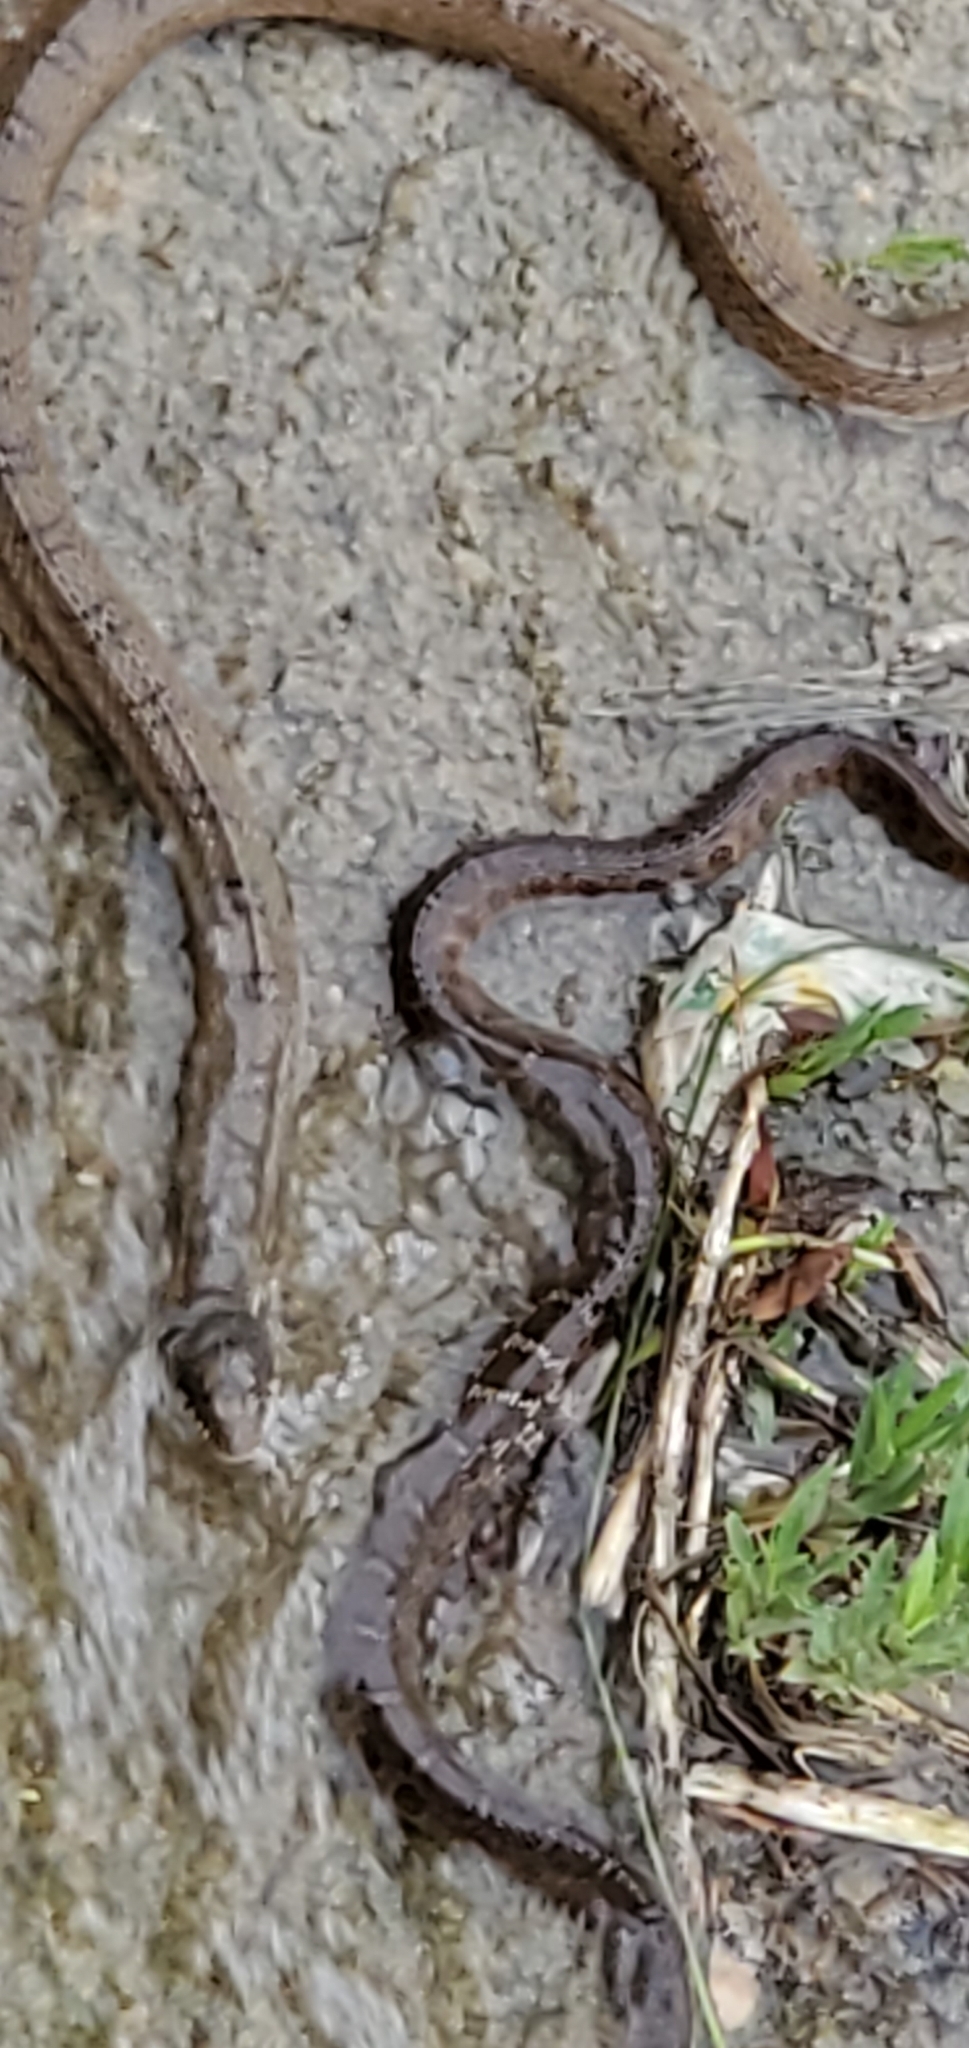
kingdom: Animalia
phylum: Chordata
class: Squamata
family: Colubridae
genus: Nerodia
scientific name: Nerodia erythrogaster
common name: Plainbelly water snake
